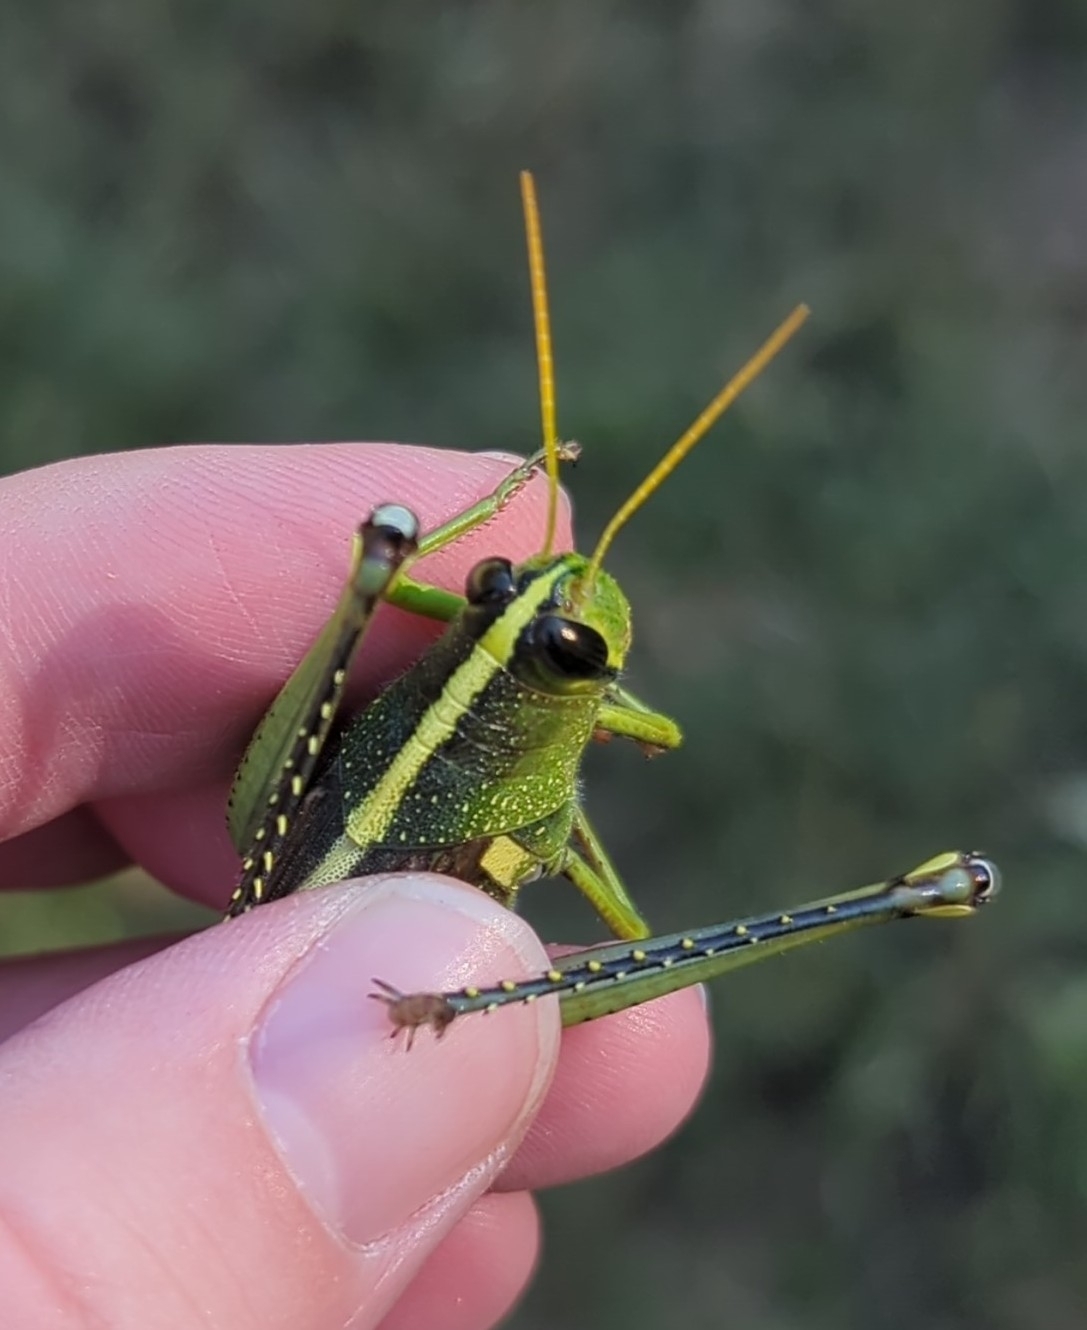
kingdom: Animalia
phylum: Arthropoda
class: Insecta
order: Orthoptera
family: Acrididae
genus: Schistocerca
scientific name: Schistocerca obscura
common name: Obscure bird grasshopper
